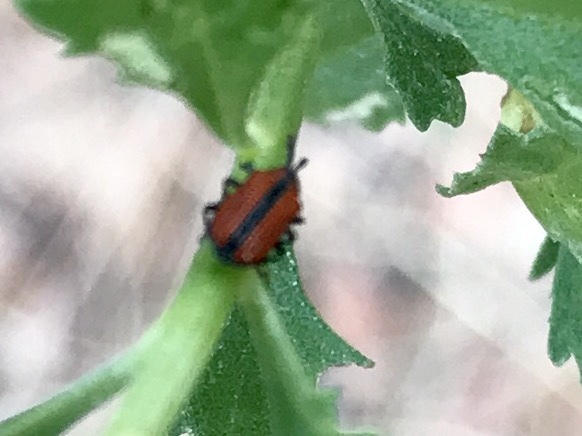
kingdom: Animalia
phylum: Arthropoda
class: Insecta
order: Coleoptera
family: Chrysomelidae
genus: Microrhopala
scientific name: Microrhopala arizonica
